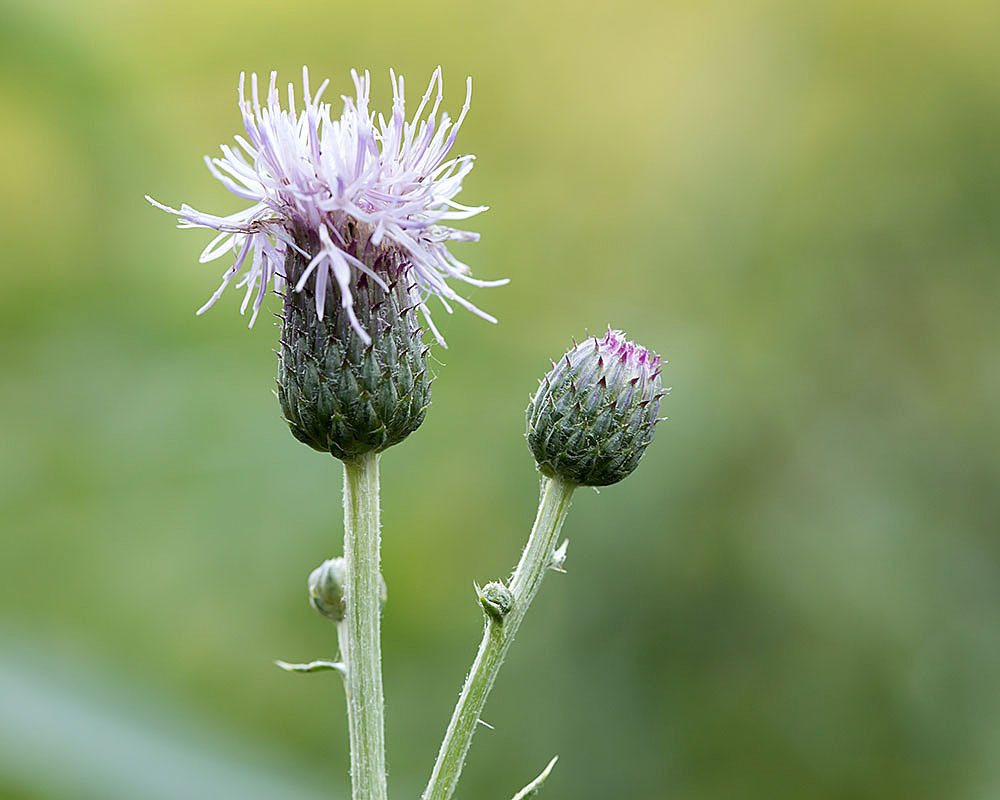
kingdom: Plantae
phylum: Tracheophyta
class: Magnoliopsida
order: Asterales
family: Asteraceae
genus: Cirsium
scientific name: Cirsium arvense
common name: Creeping thistle
